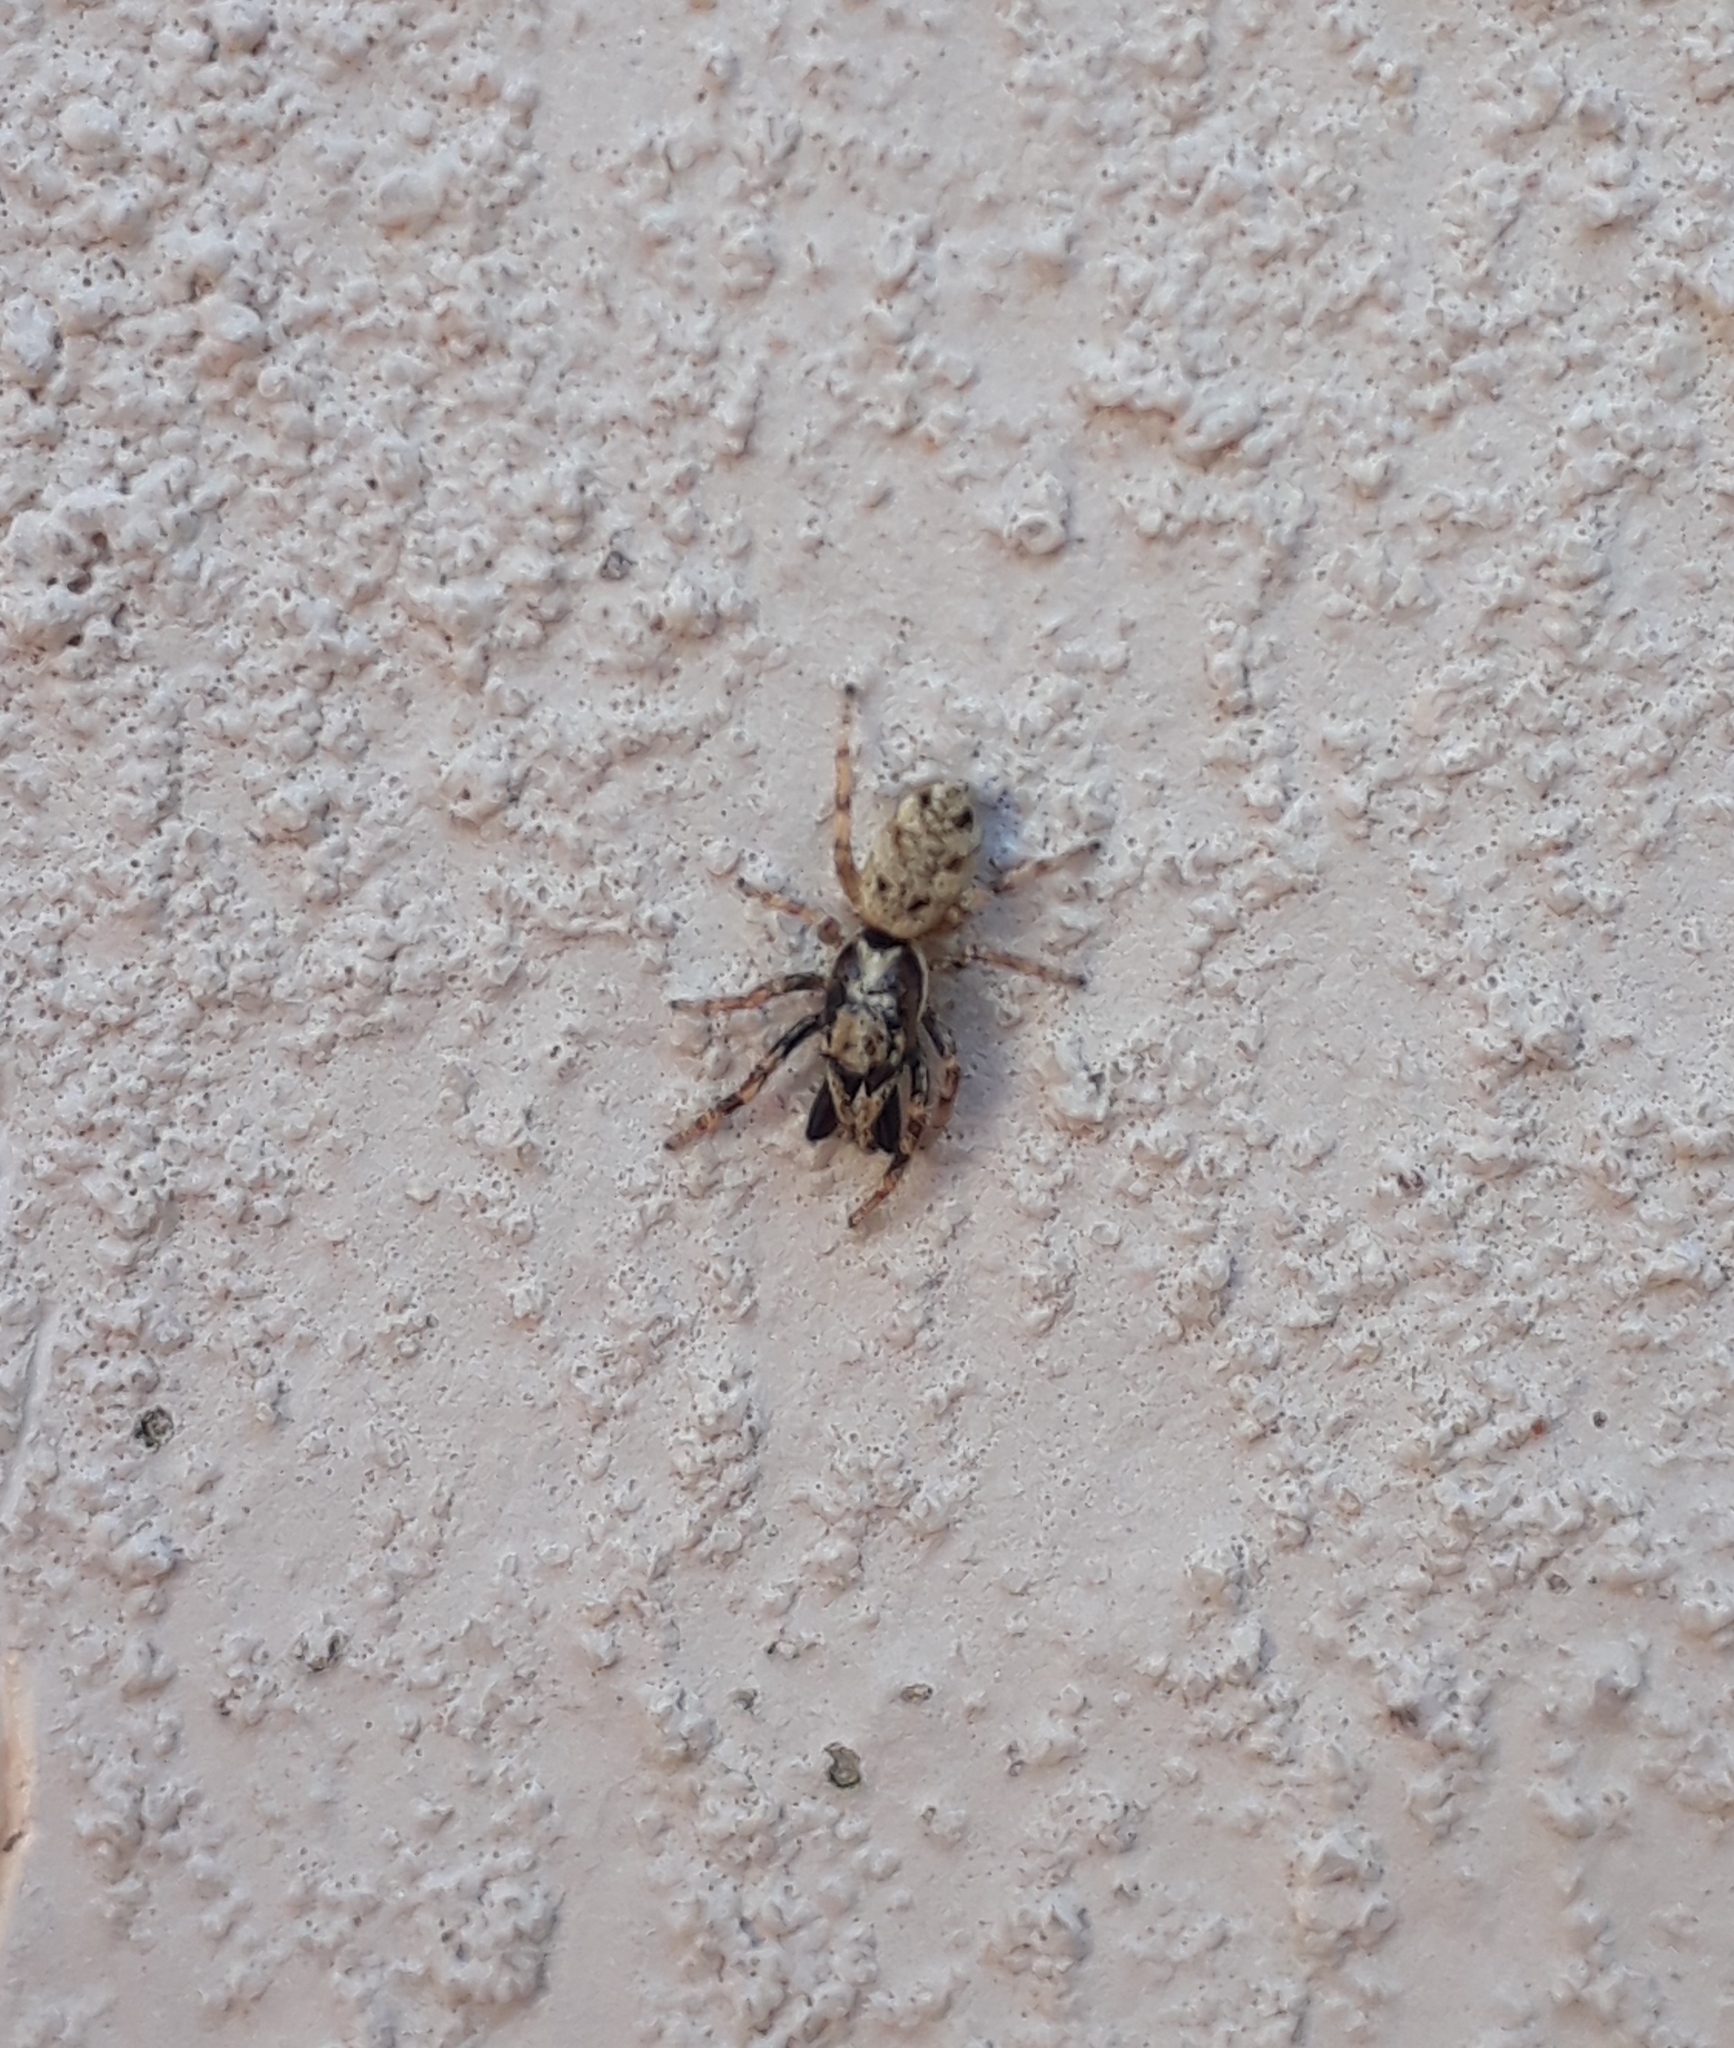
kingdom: Animalia
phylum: Arthropoda
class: Arachnida
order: Araneae
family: Salticidae
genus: Salticus
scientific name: Salticus mutabilis
